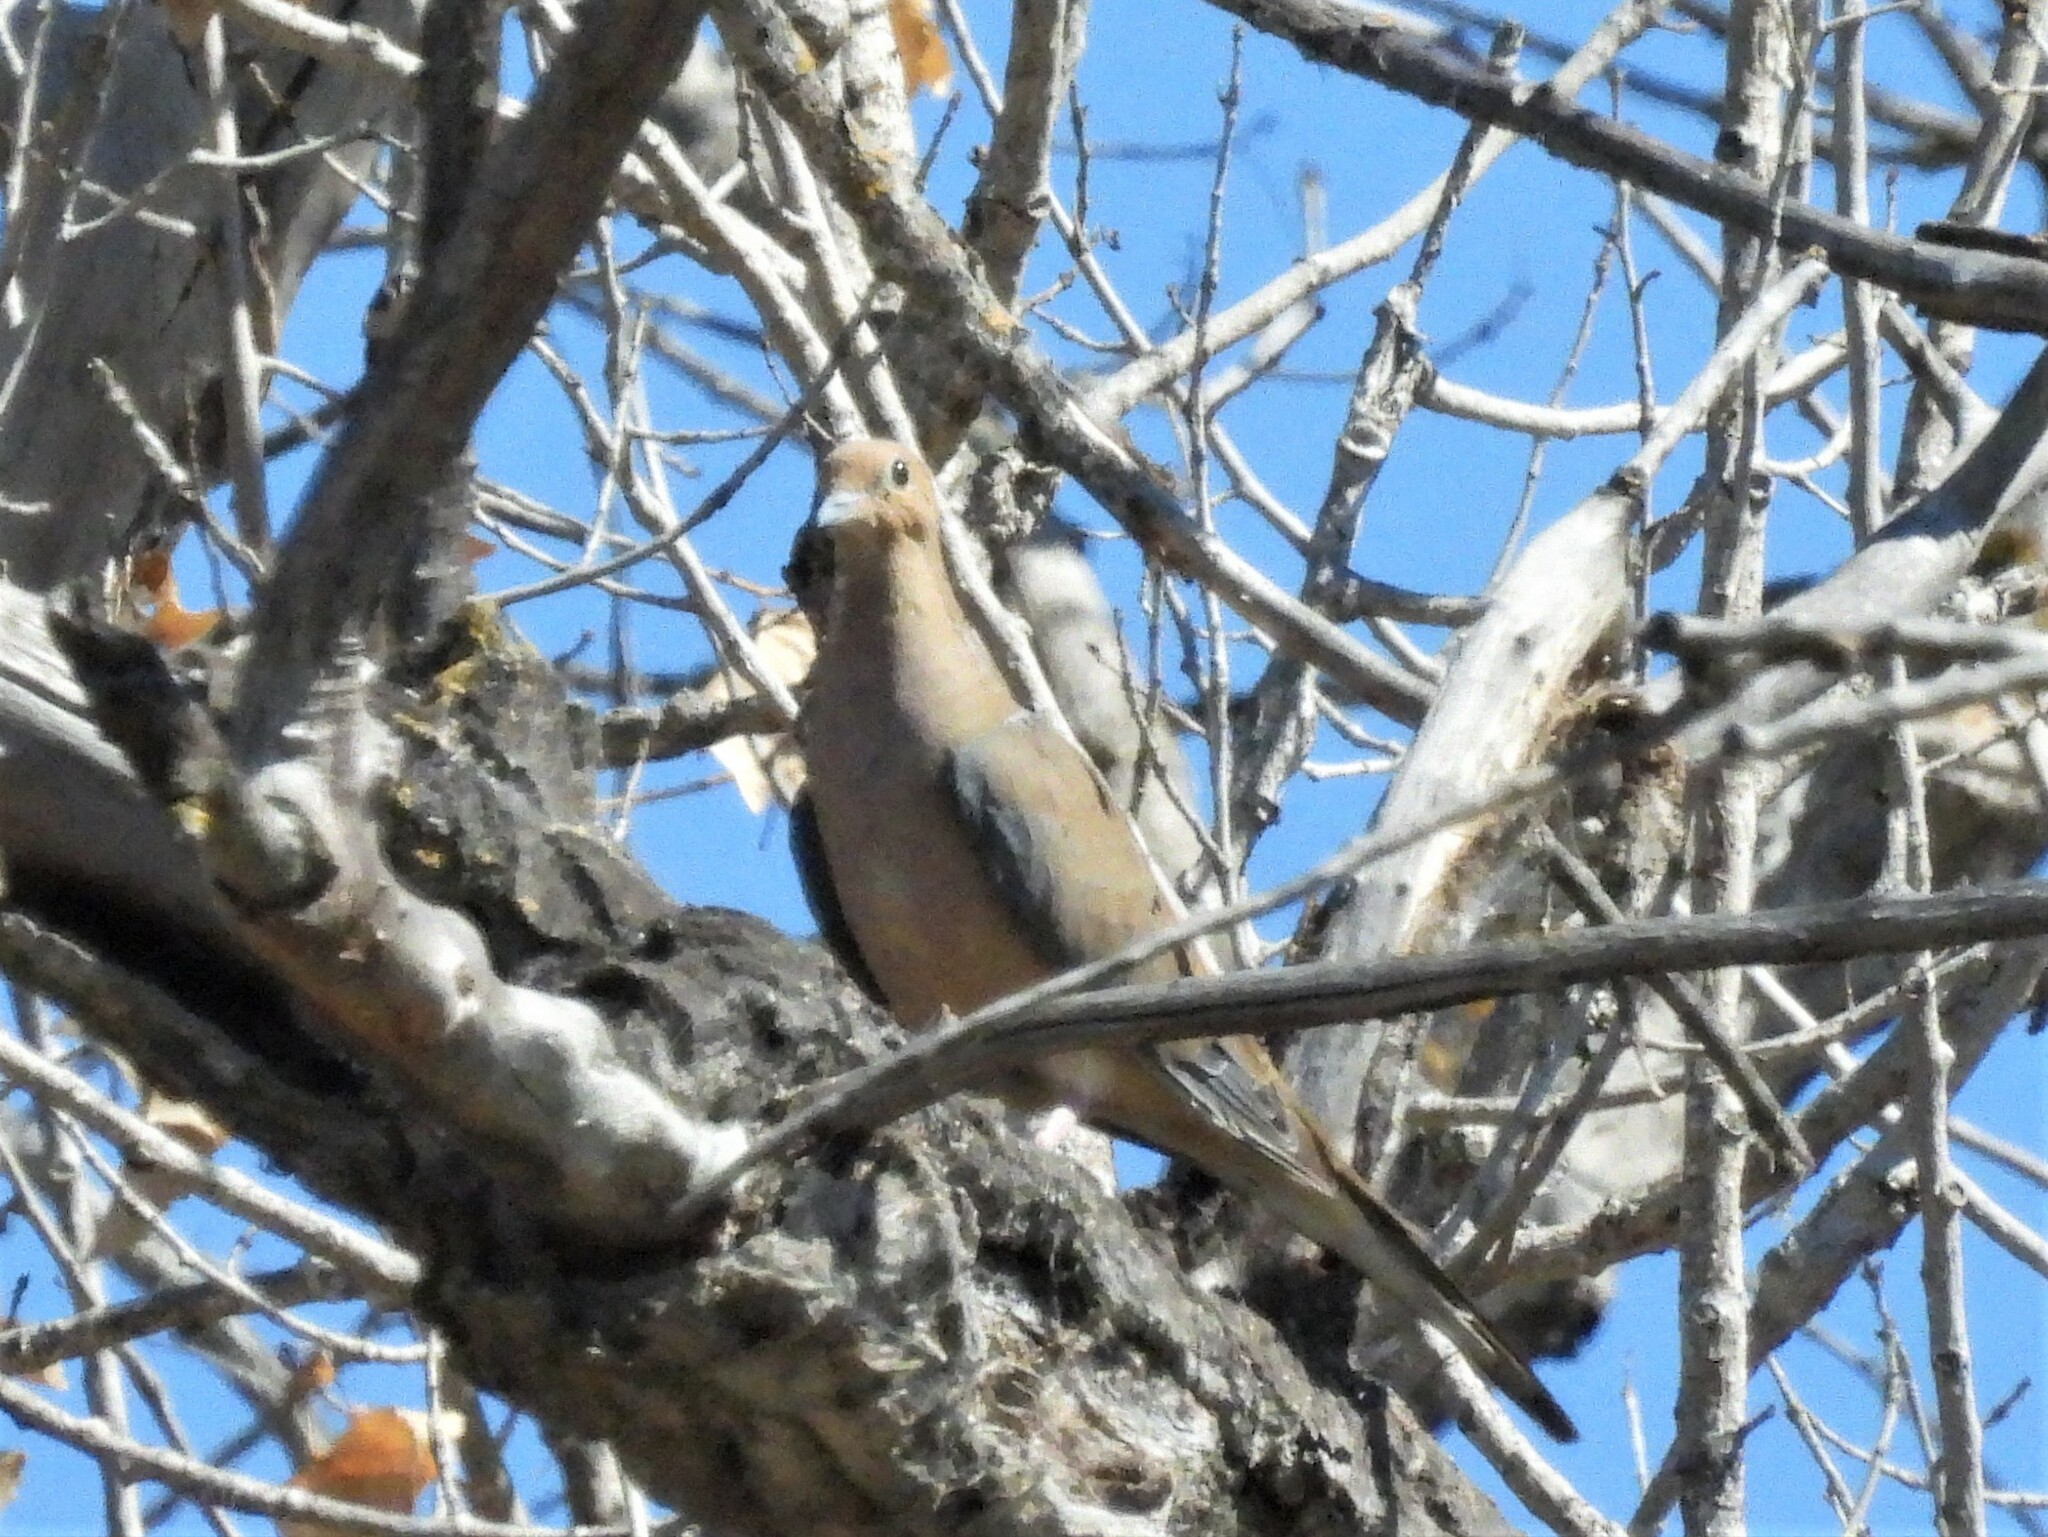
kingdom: Animalia
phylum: Chordata
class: Aves
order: Columbiformes
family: Columbidae
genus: Zenaida
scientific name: Zenaida macroura
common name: Mourning dove
